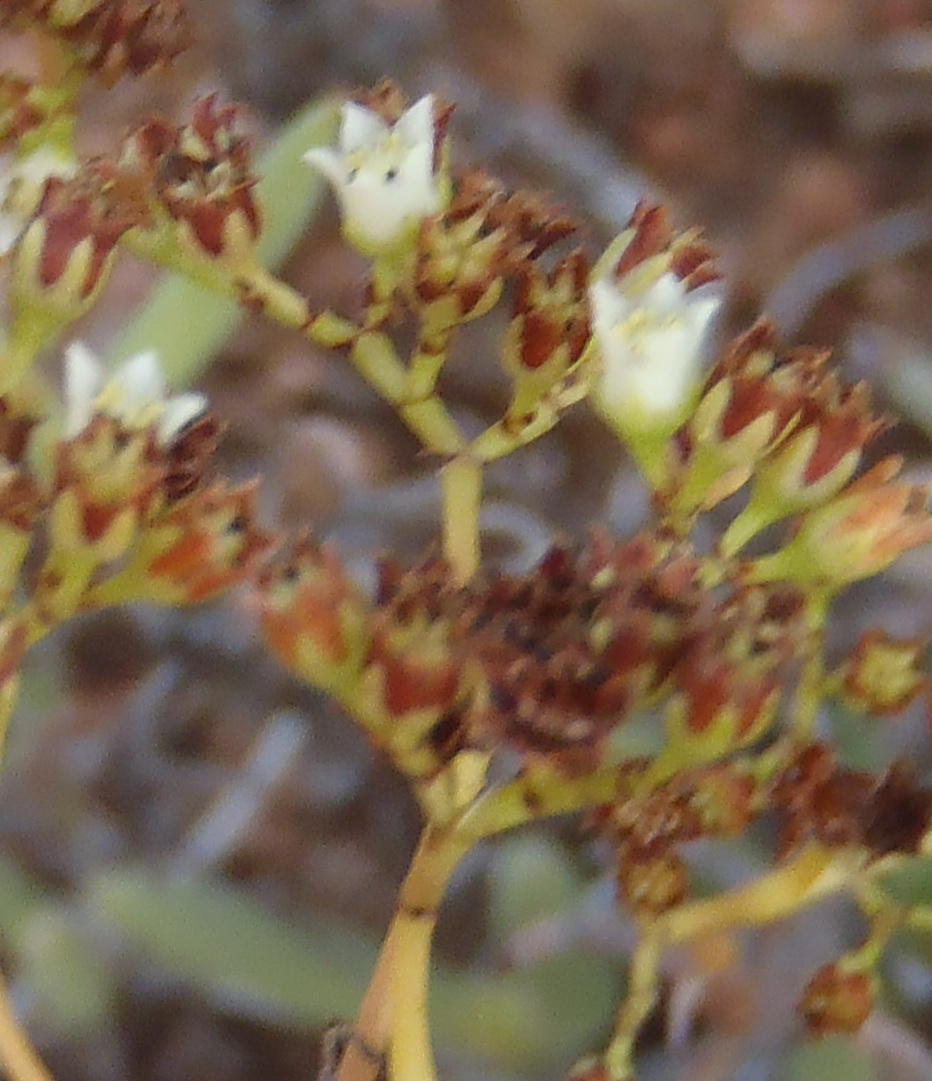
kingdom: Plantae
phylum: Tracheophyta
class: Magnoliopsida
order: Saxifragales
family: Crassulaceae
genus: Crassula
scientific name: Crassula tetragona
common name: Pygmyweed
